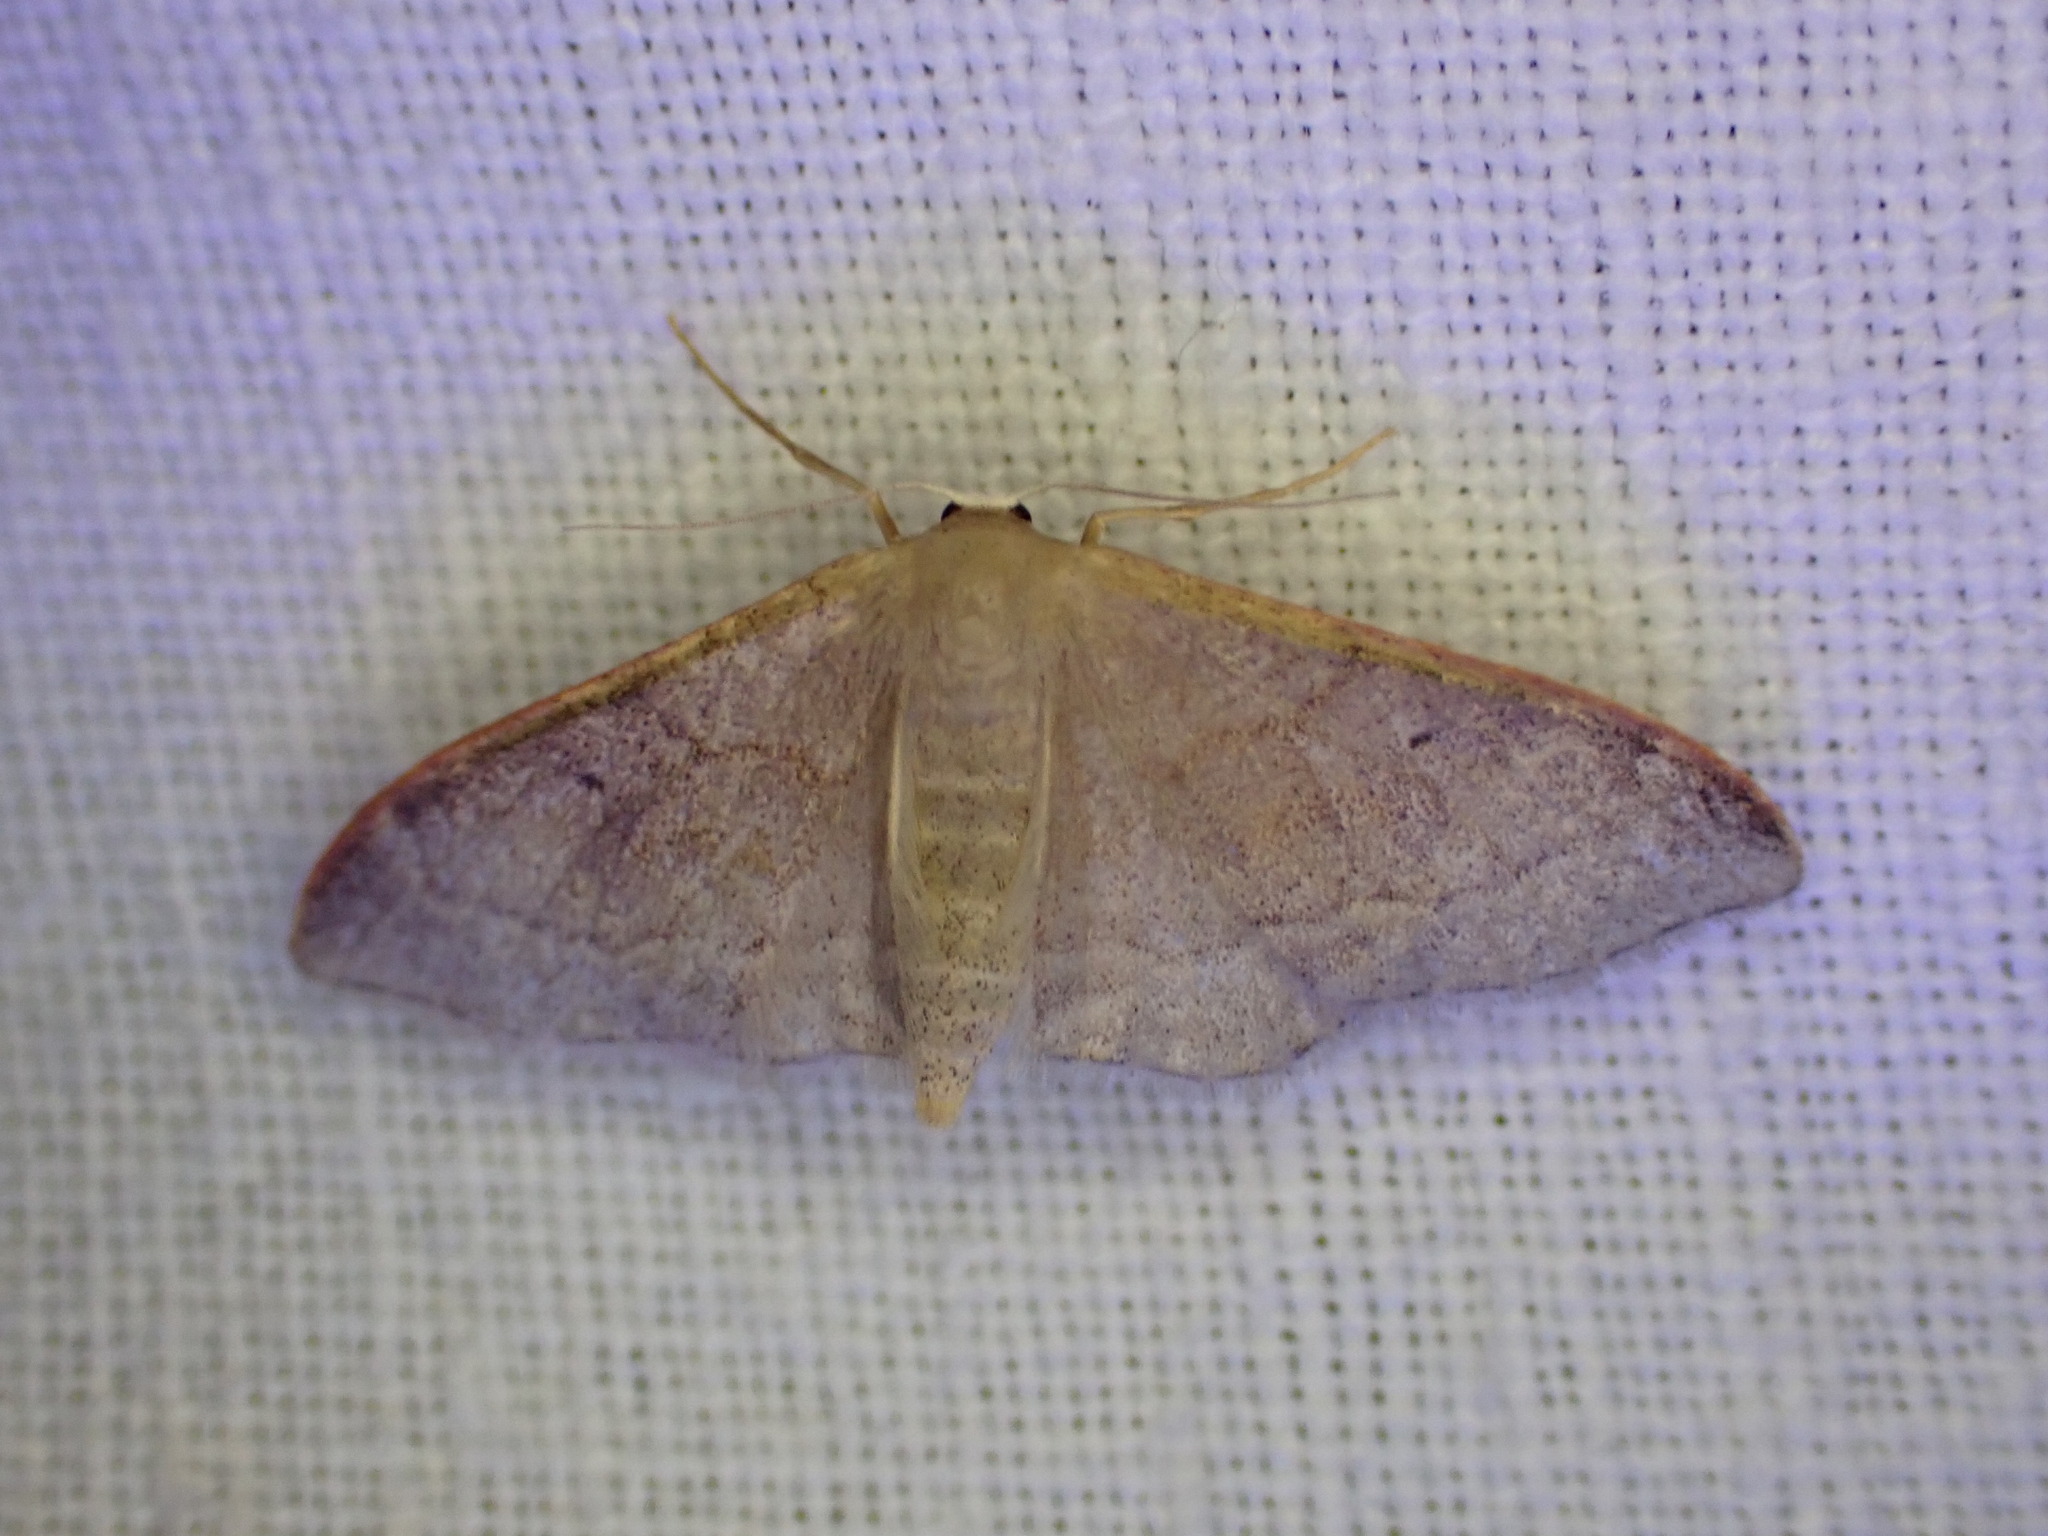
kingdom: Animalia
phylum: Arthropoda
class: Insecta
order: Lepidoptera
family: Geometridae
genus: Idaea
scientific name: Idaea degeneraria
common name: Portland ribbon wave
